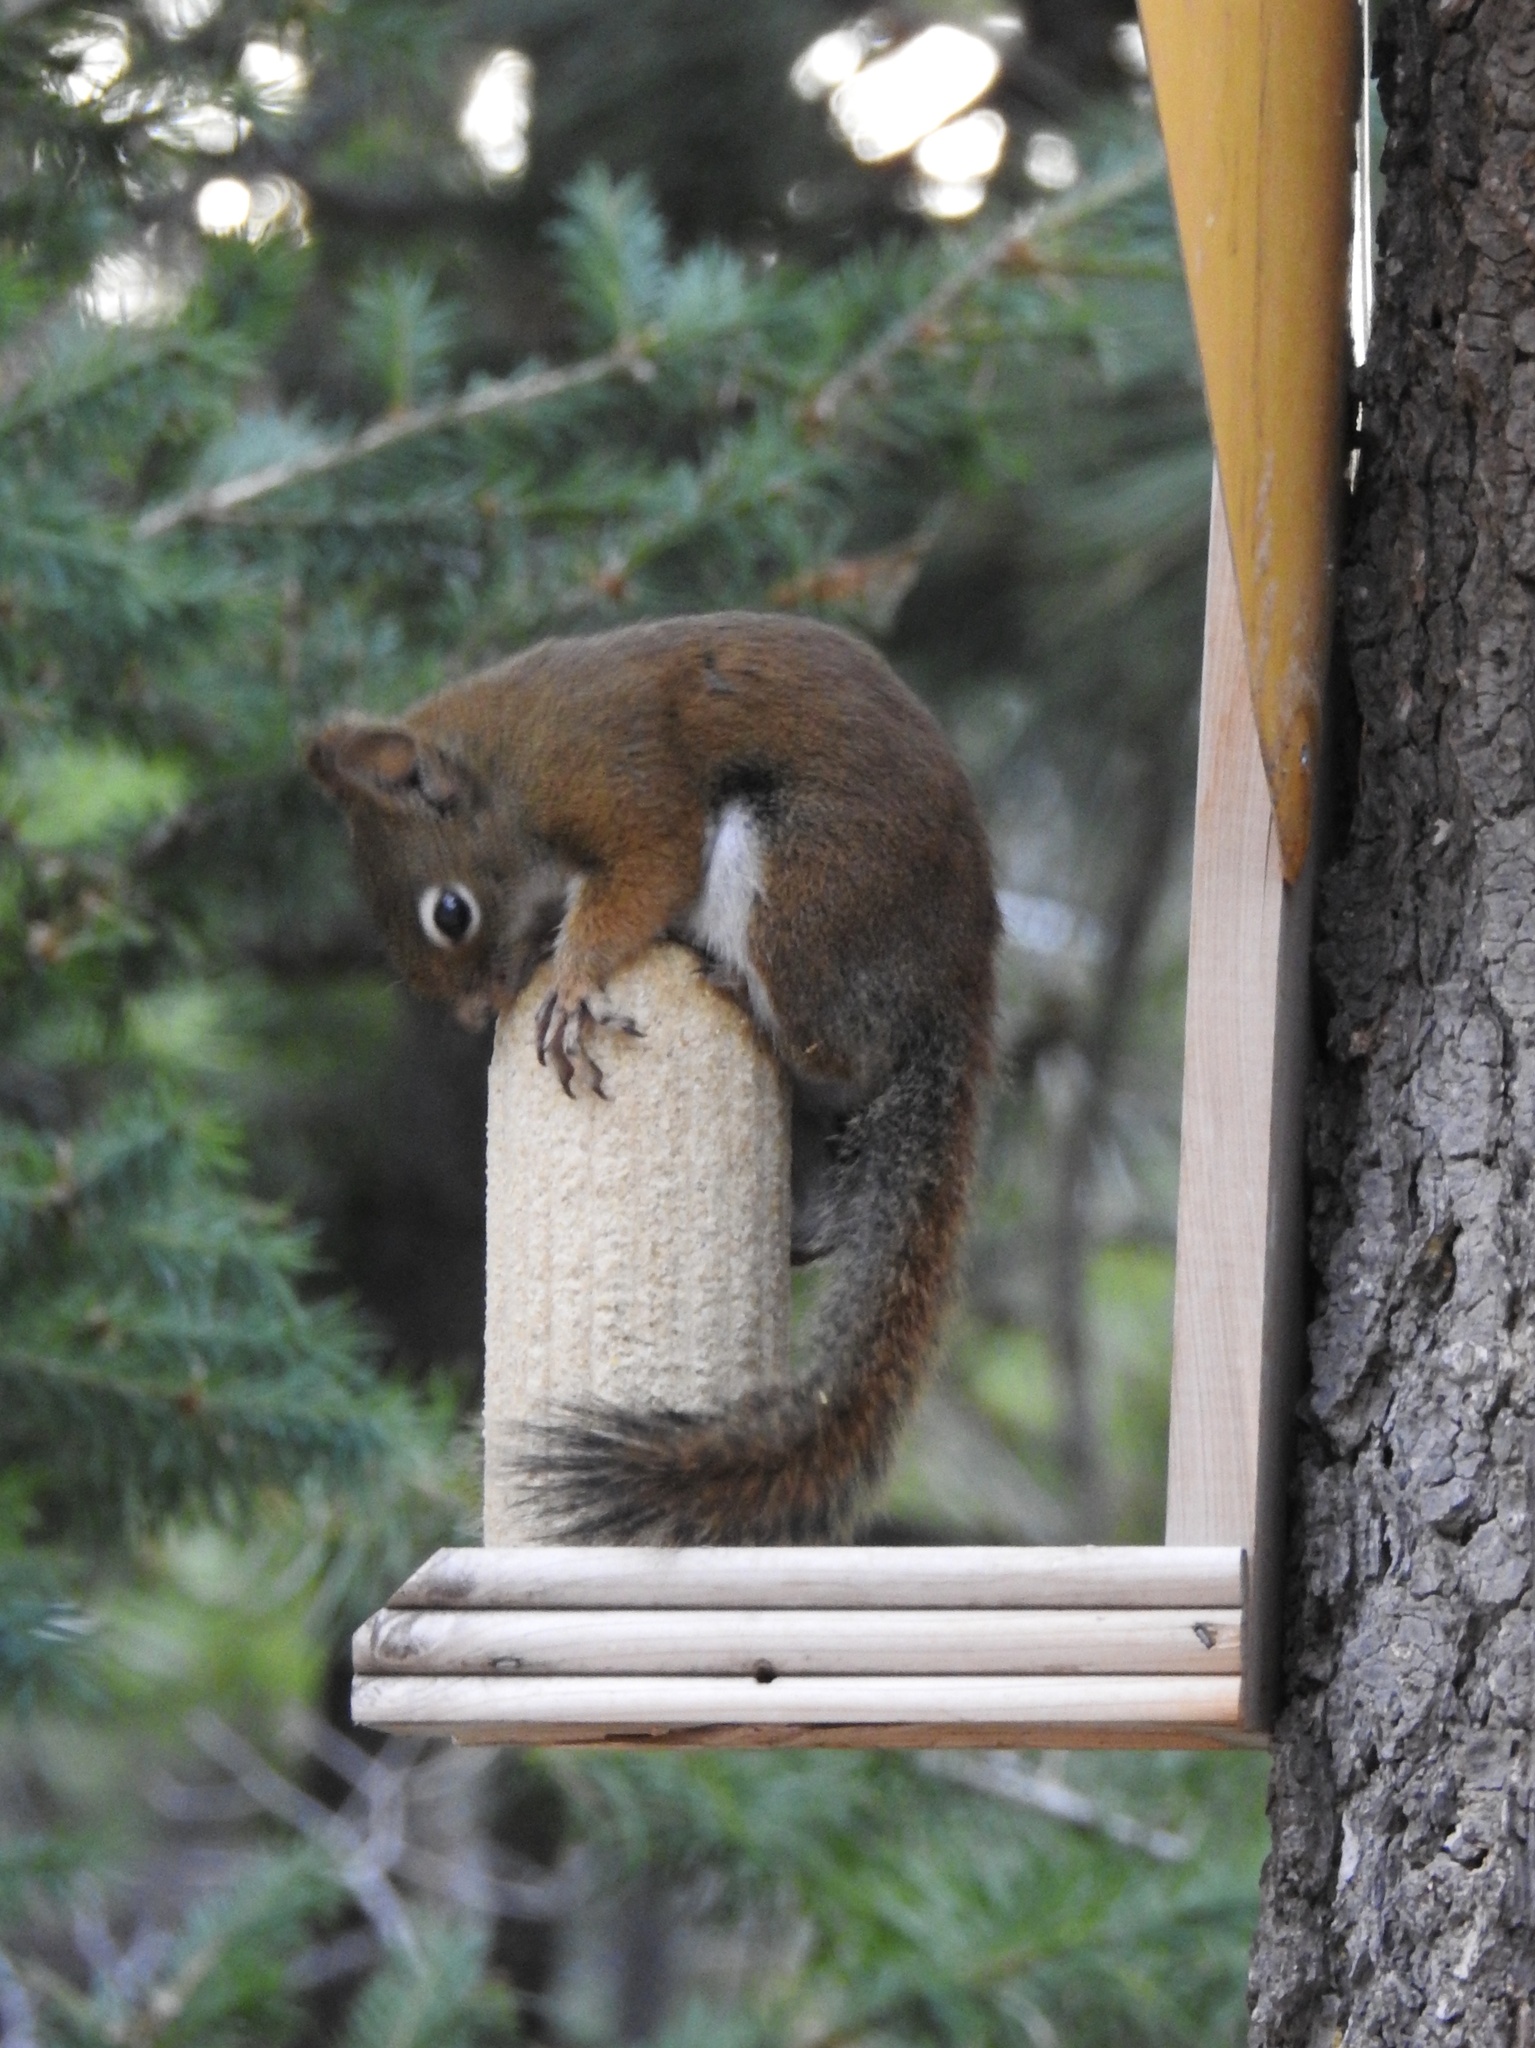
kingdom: Animalia
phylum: Chordata
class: Mammalia
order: Rodentia
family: Sciuridae
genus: Tamiasciurus
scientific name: Tamiasciurus hudsonicus
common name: Red squirrel
